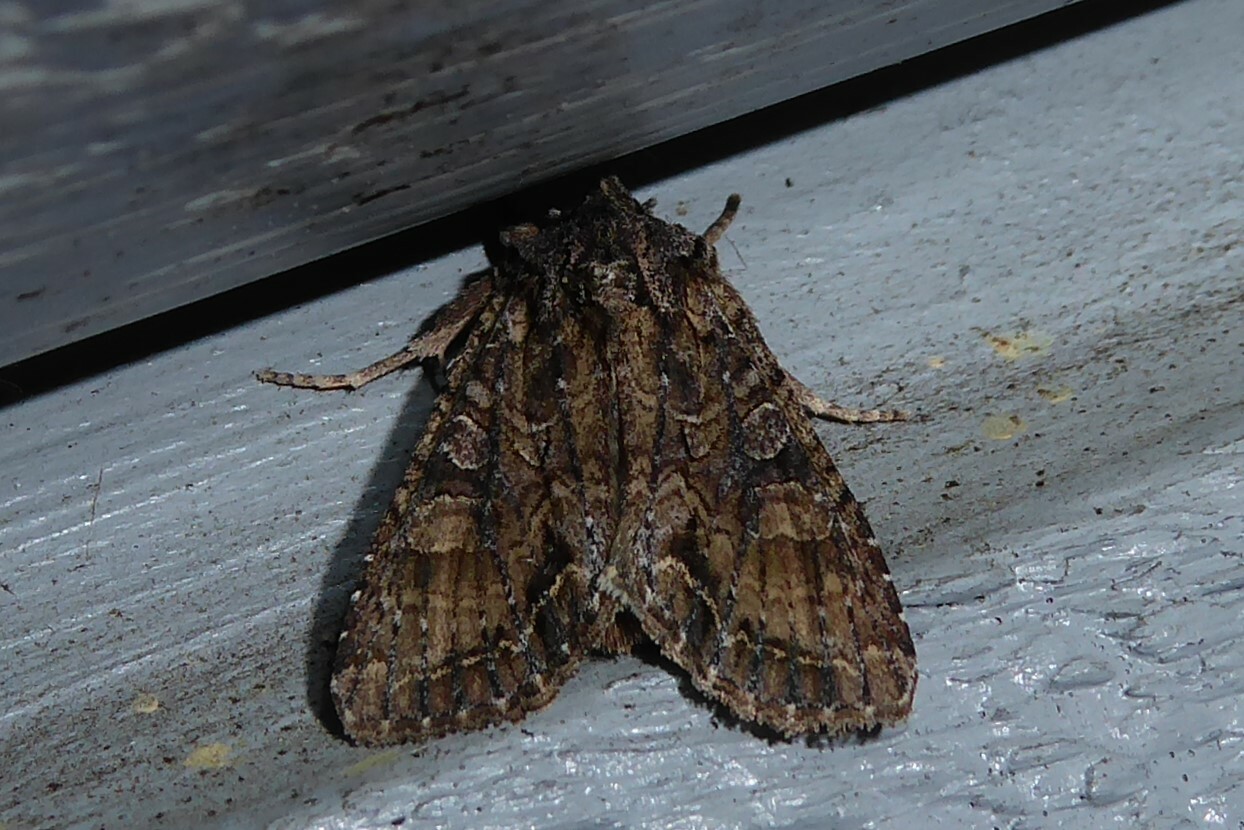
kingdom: Animalia
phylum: Arthropoda
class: Insecta
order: Lepidoptera
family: Noctuidae
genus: Ichneutica
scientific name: Ichneutica mutans
